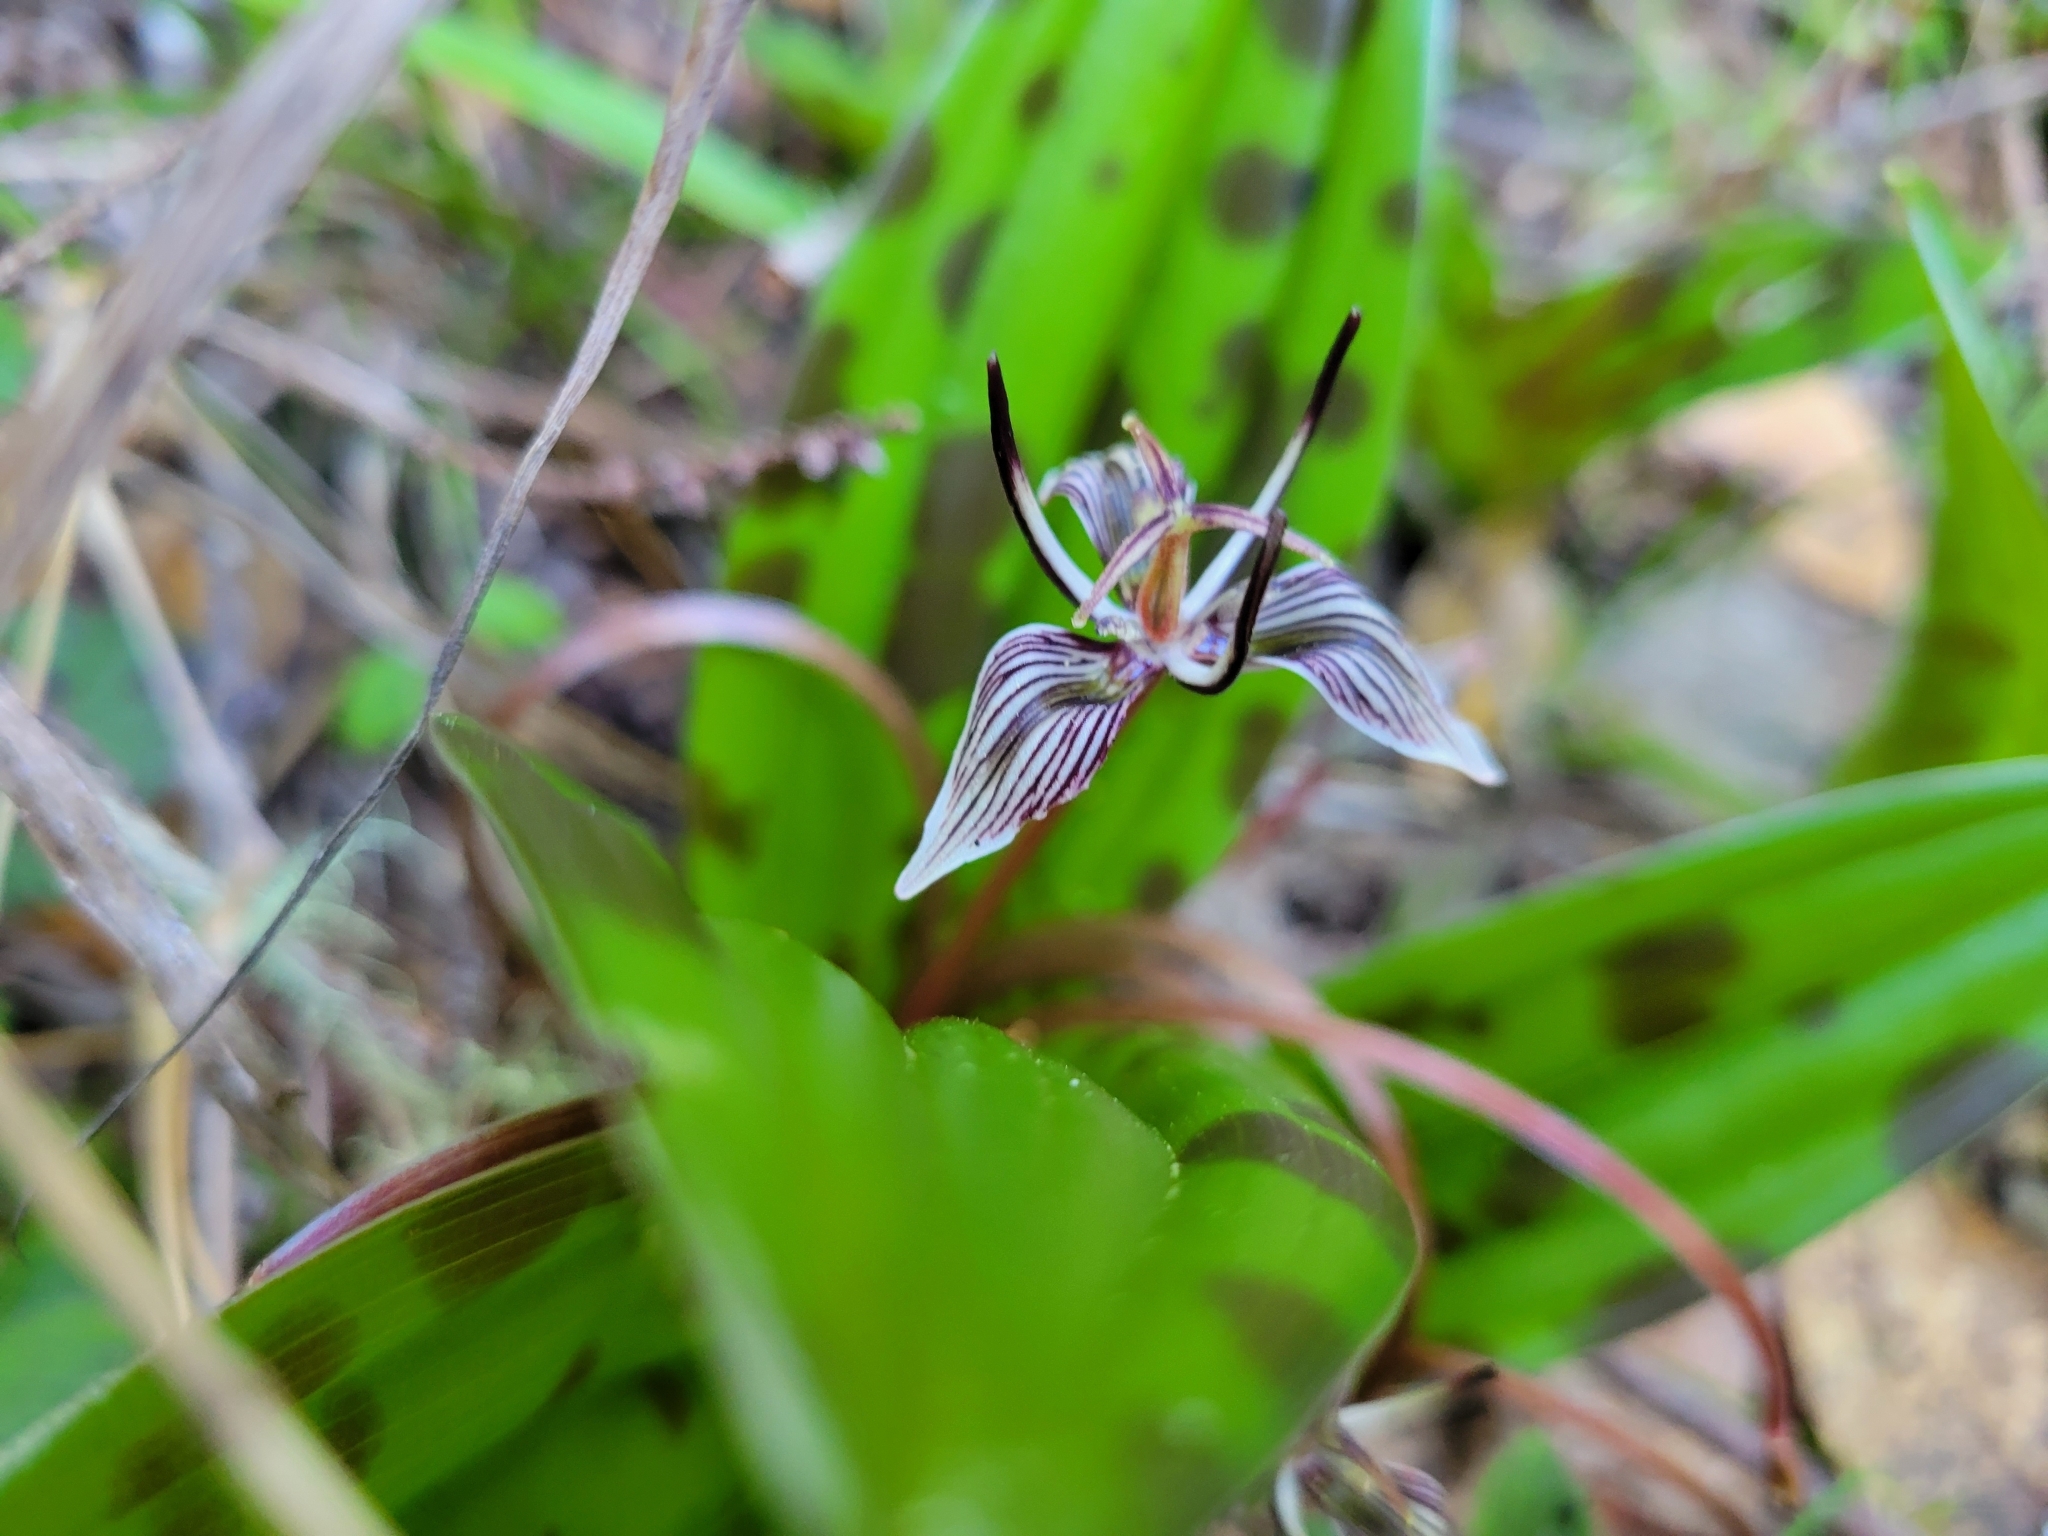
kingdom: Plantae
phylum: Tracheophyta
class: Liliopsida
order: Liliales
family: Liliaceae
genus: Scoliopus
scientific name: Scoliopus bigelovii
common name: Foetid adder's-tongue
